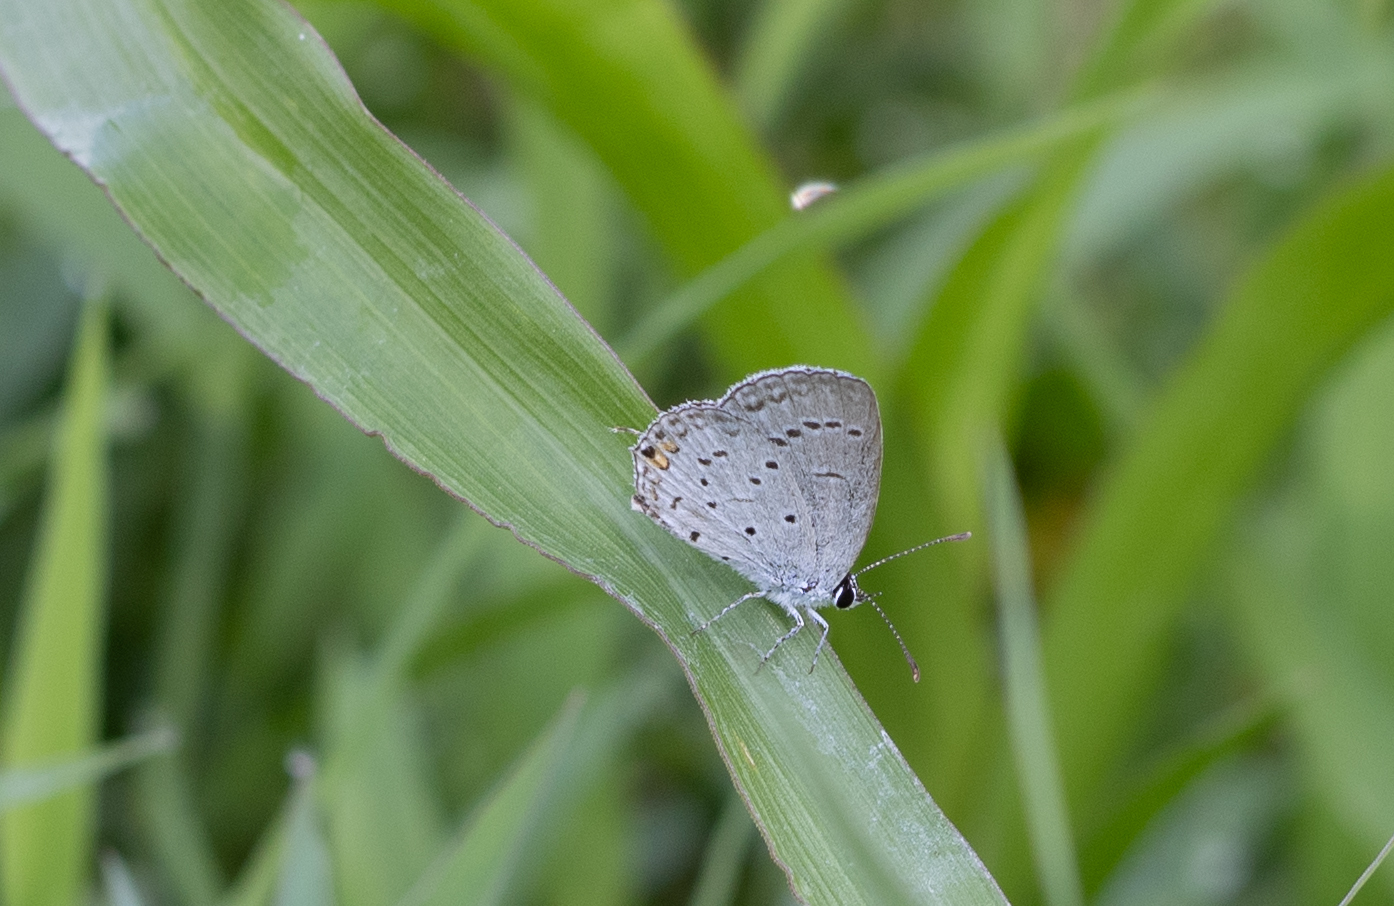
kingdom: Animalia
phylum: Arthropoda
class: Insecta
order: Lepidoptera
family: Lycaenidae
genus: Elkalyce
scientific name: Elkalyce comyntas
